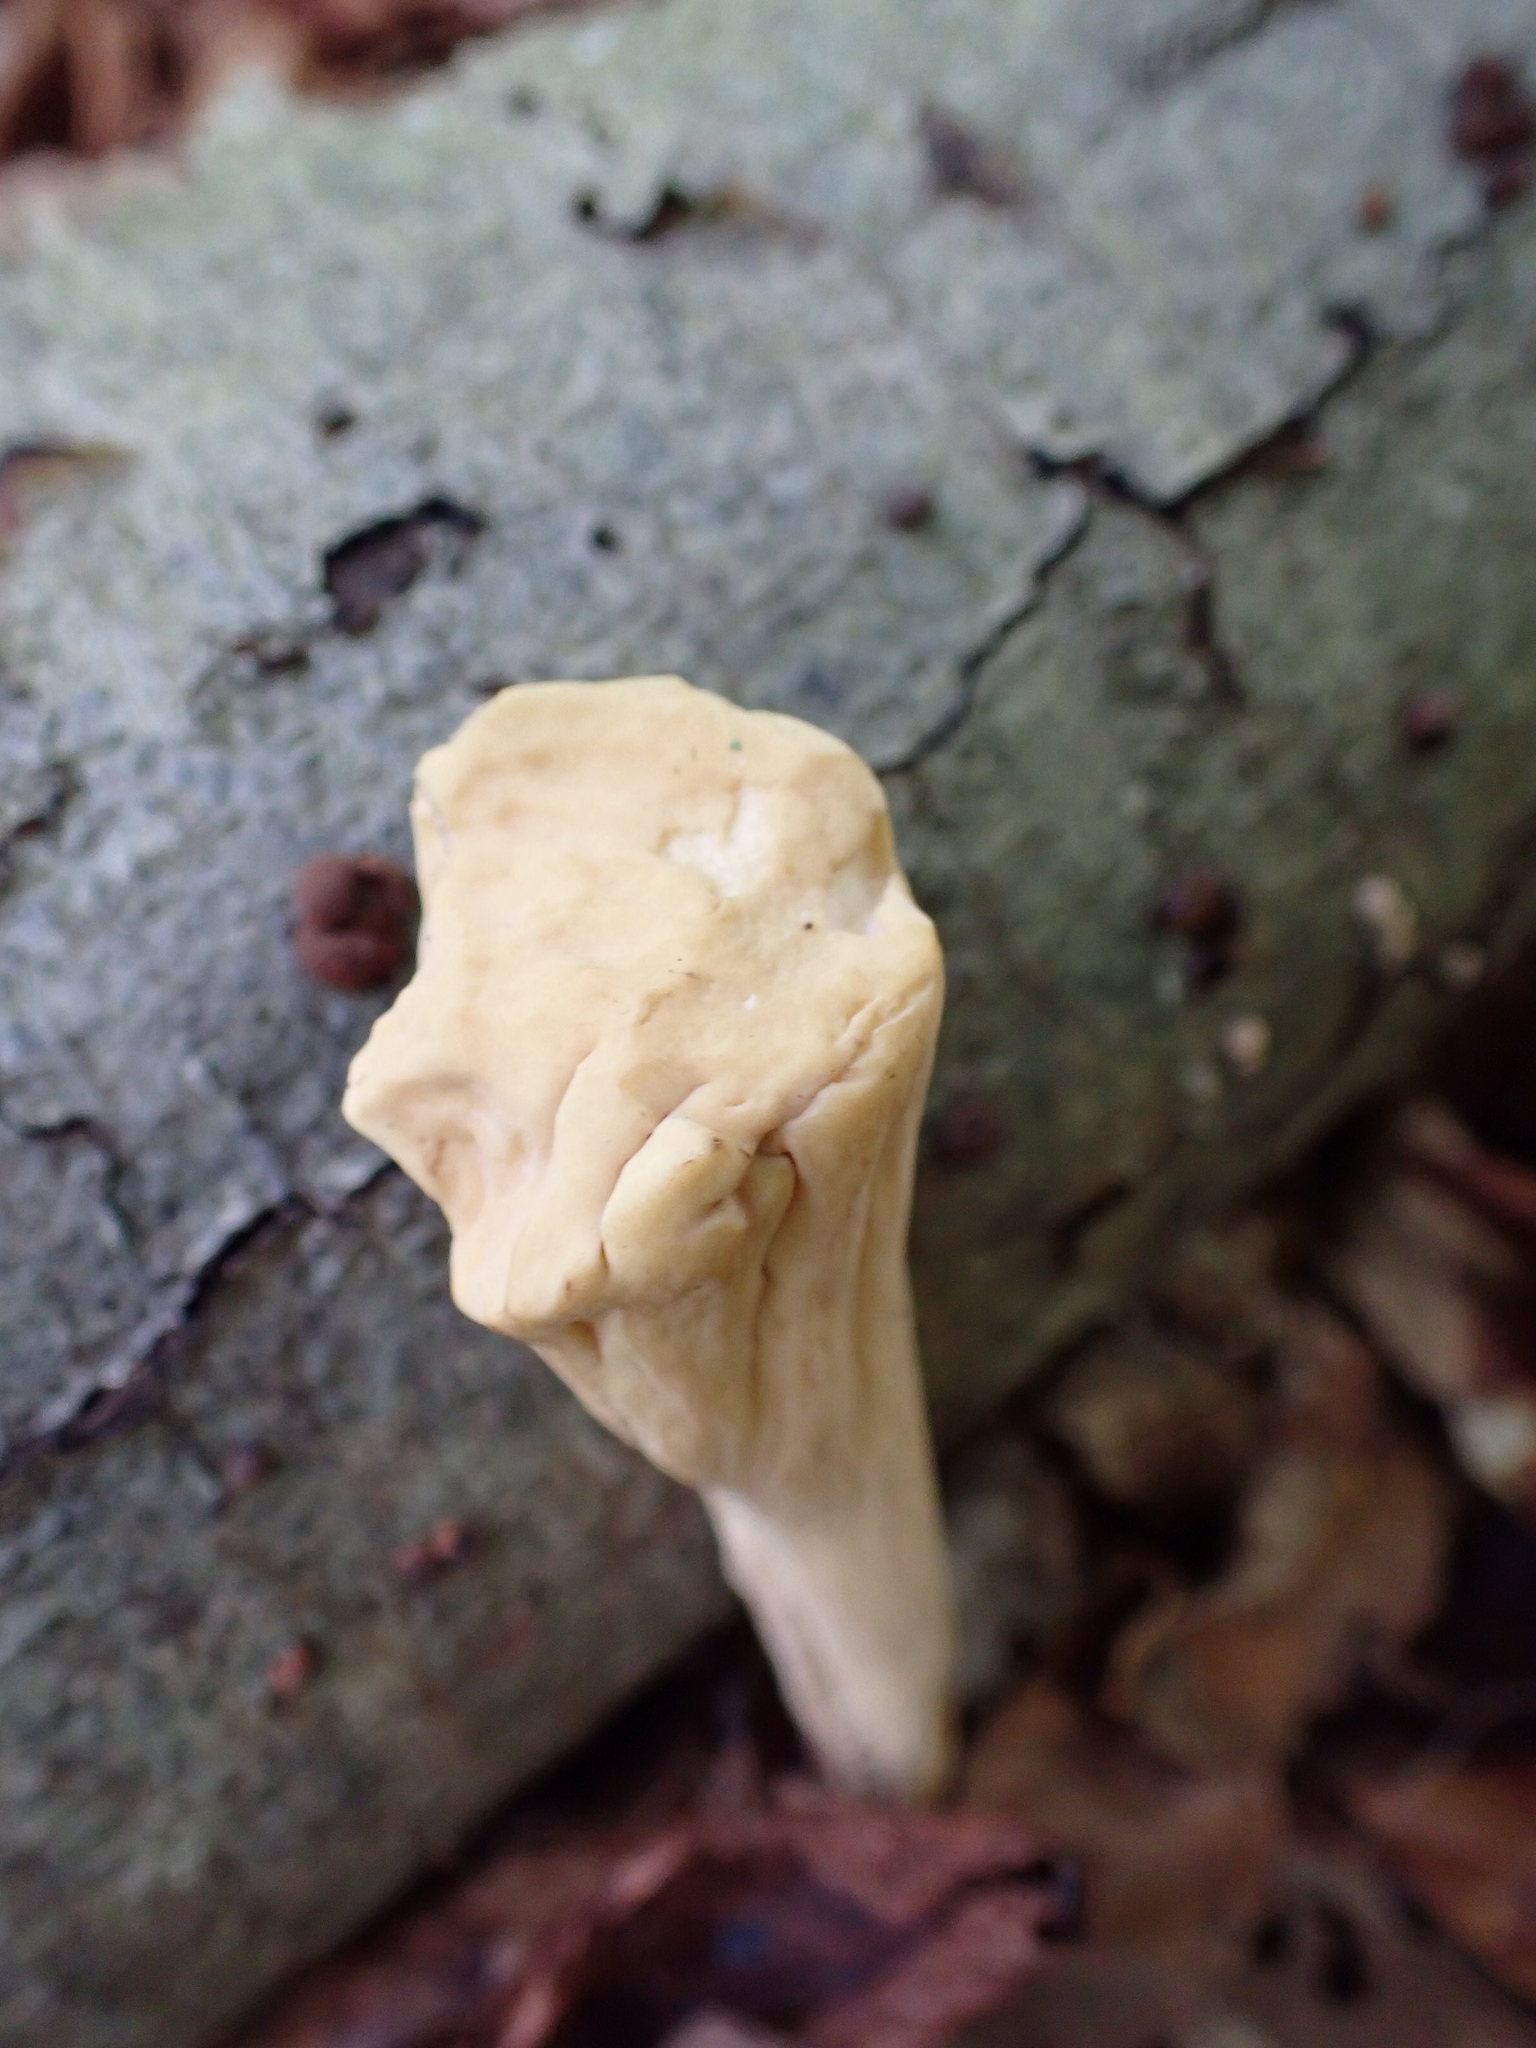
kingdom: Fungi
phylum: Basidiomycota
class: Agaricomycetes
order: Gomphales
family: Clavariadelphaceae
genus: Clavariadelphus
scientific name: Clavariadelphus pistillaris
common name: Giant club
